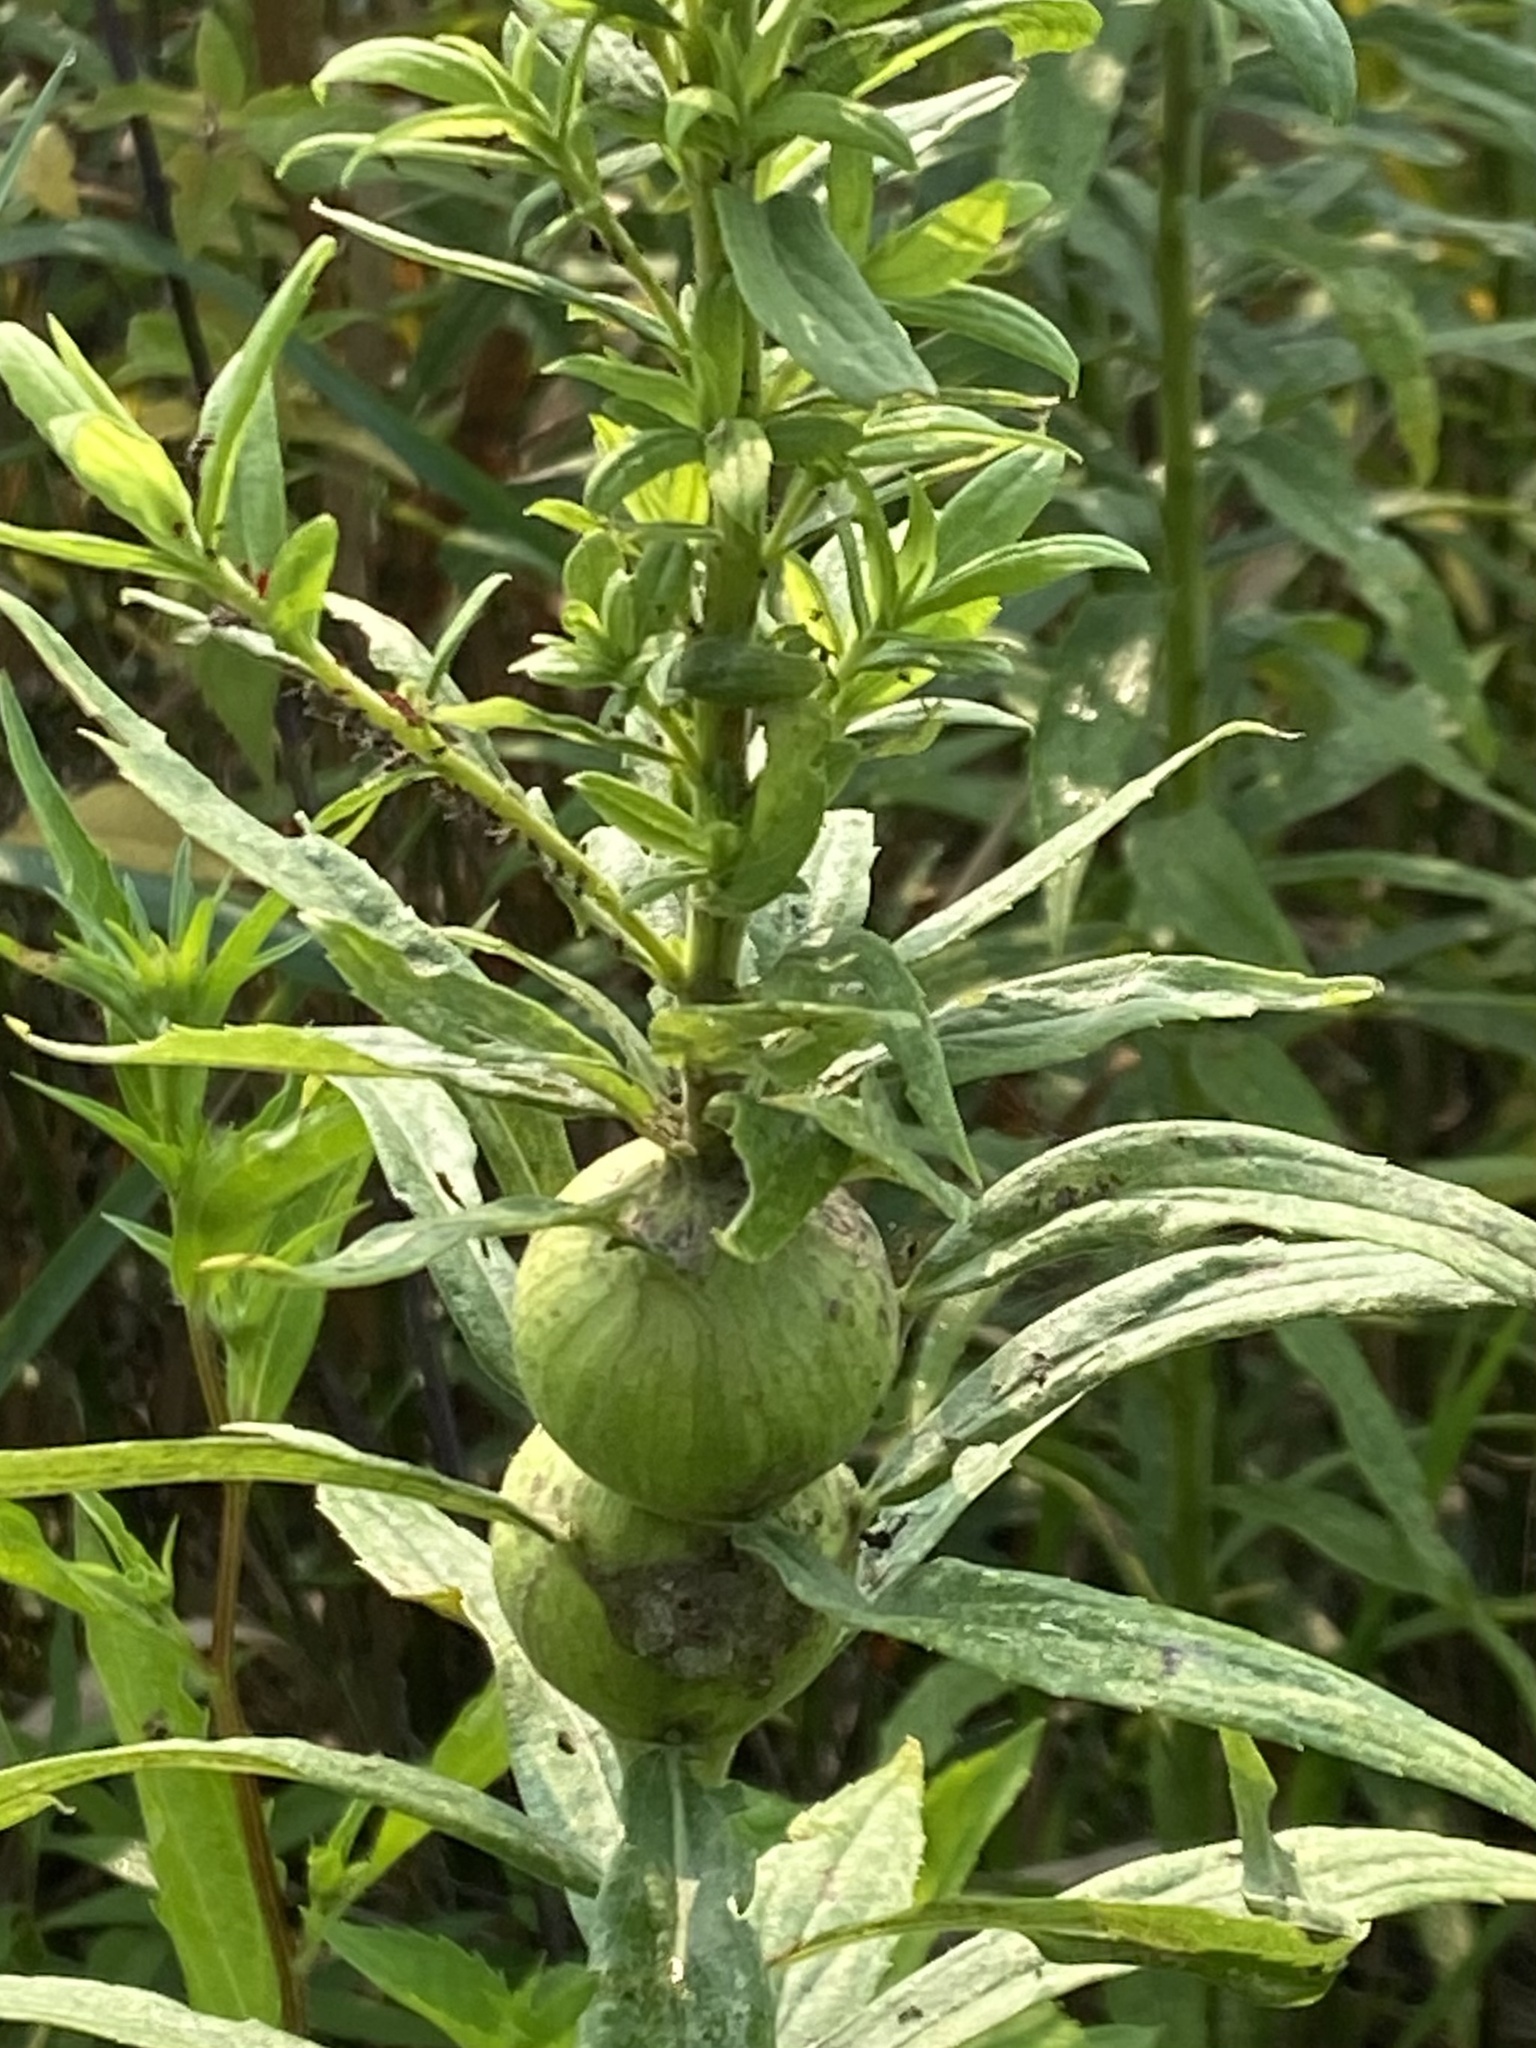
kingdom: Animalia
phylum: Arthropoda
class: Insecta
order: Diptera
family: Tephritidae
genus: Eurosta
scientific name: Eurosta solidaginis
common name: Goldenrod gall fly
